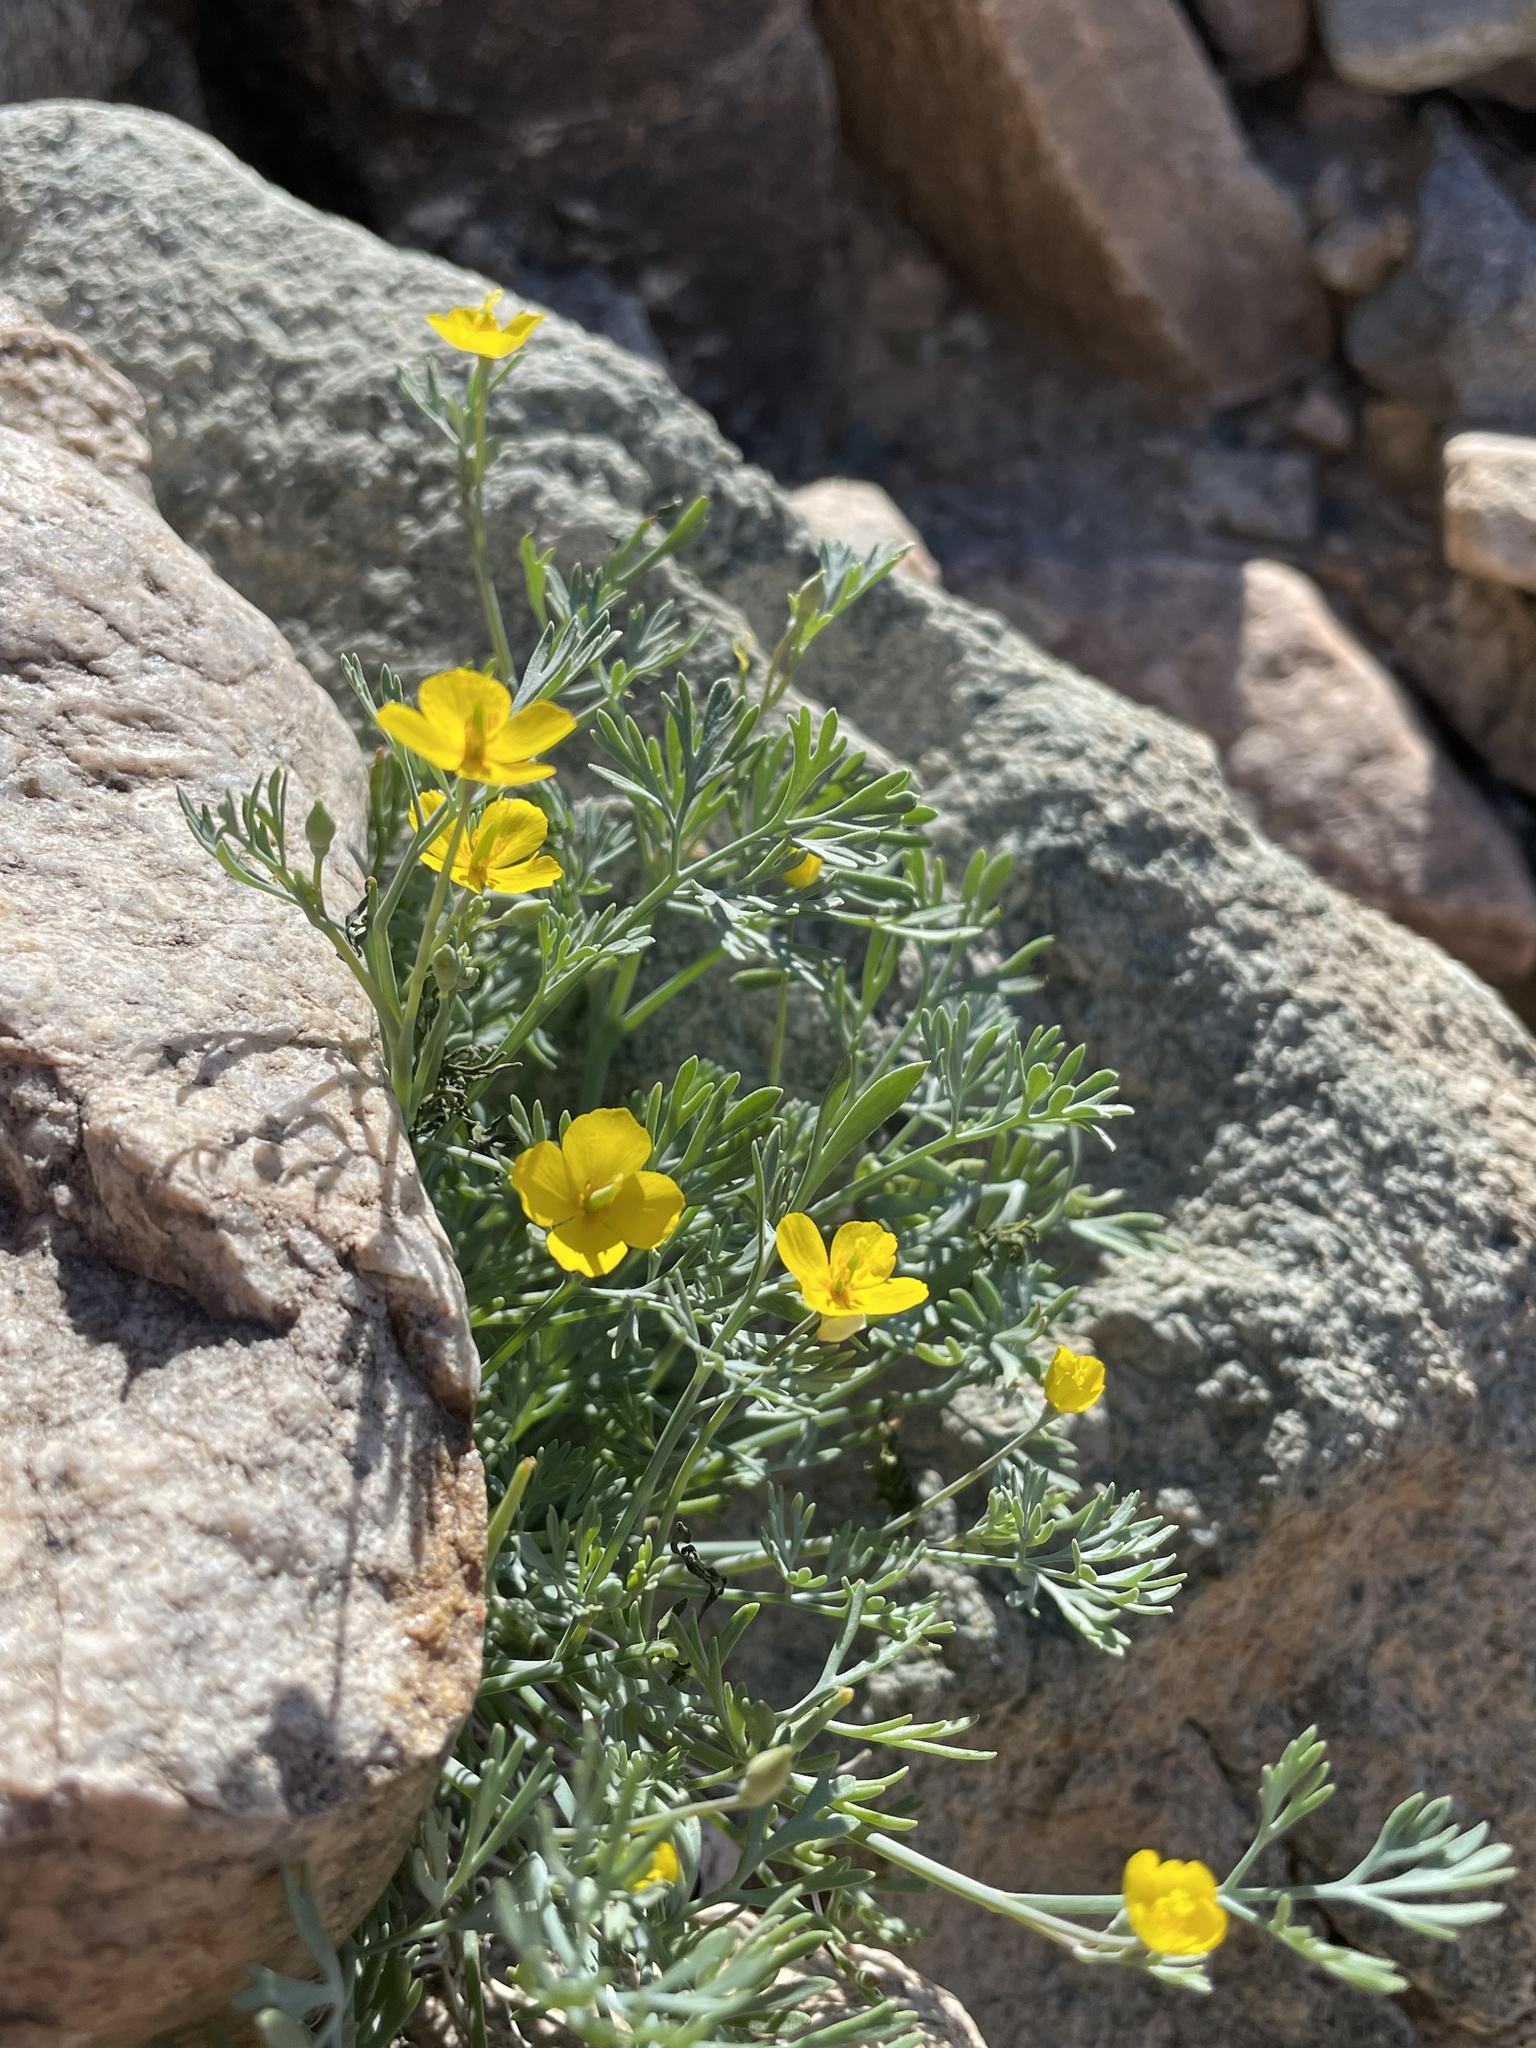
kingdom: Plantae
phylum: Tracheophyta
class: Magnoliopsida
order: Ranunculales
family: Papaveraceae
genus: Eschscholzia
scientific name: Eschscholzia minutiflora
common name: Small-flower california-poppy
